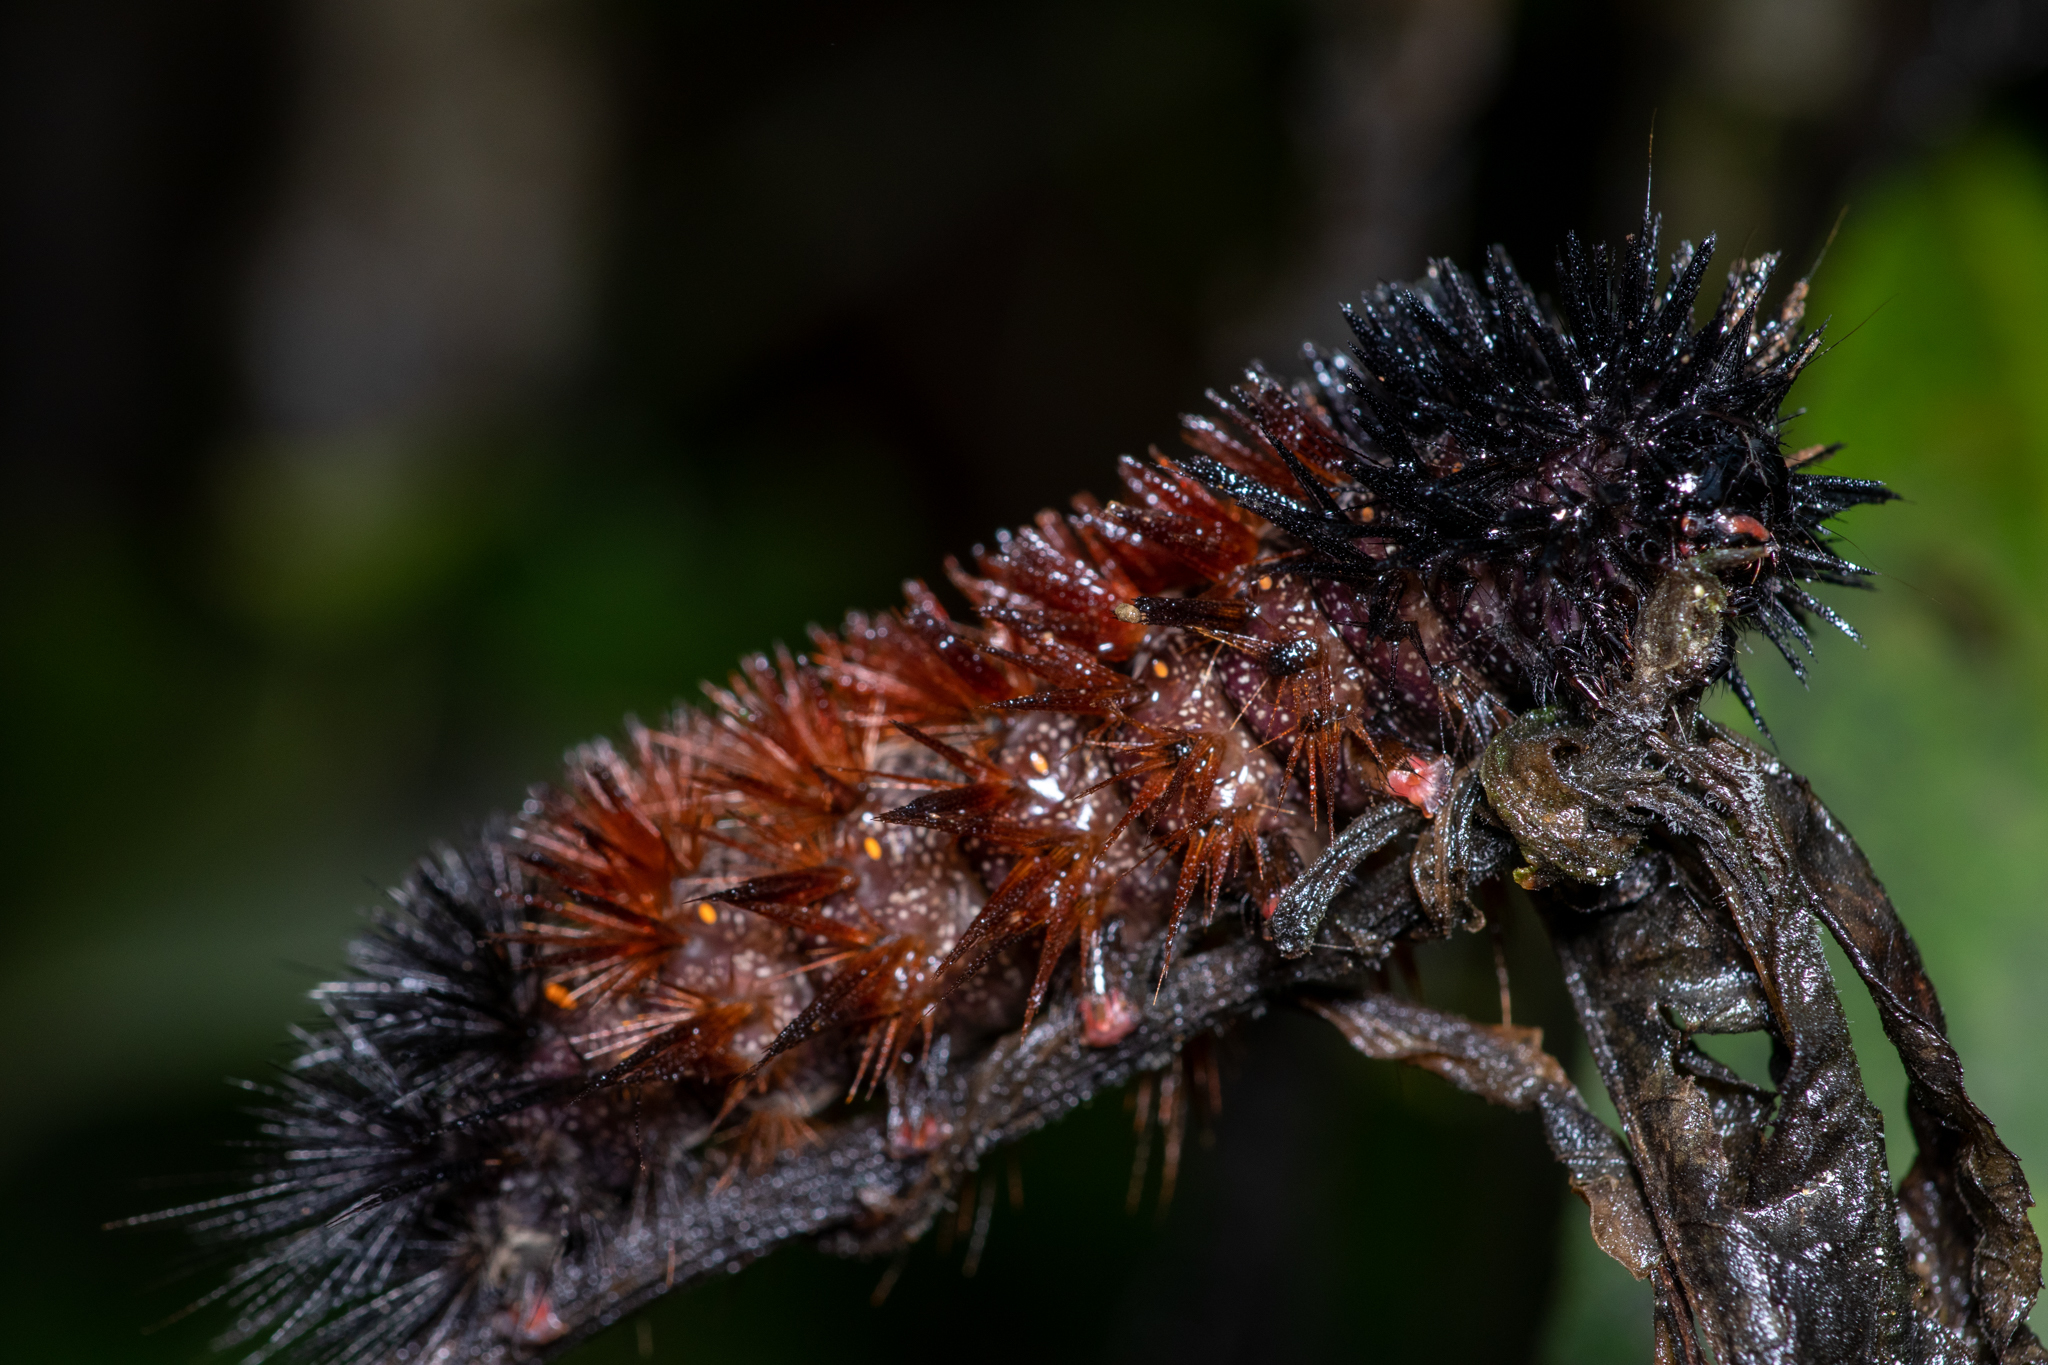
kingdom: Animalia
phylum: Arthropoda
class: Insecta
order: Lepidoptera
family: Erebidae
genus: Pyrrharctia
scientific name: Pyrrharctia isabella
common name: Isabella tiger moth
